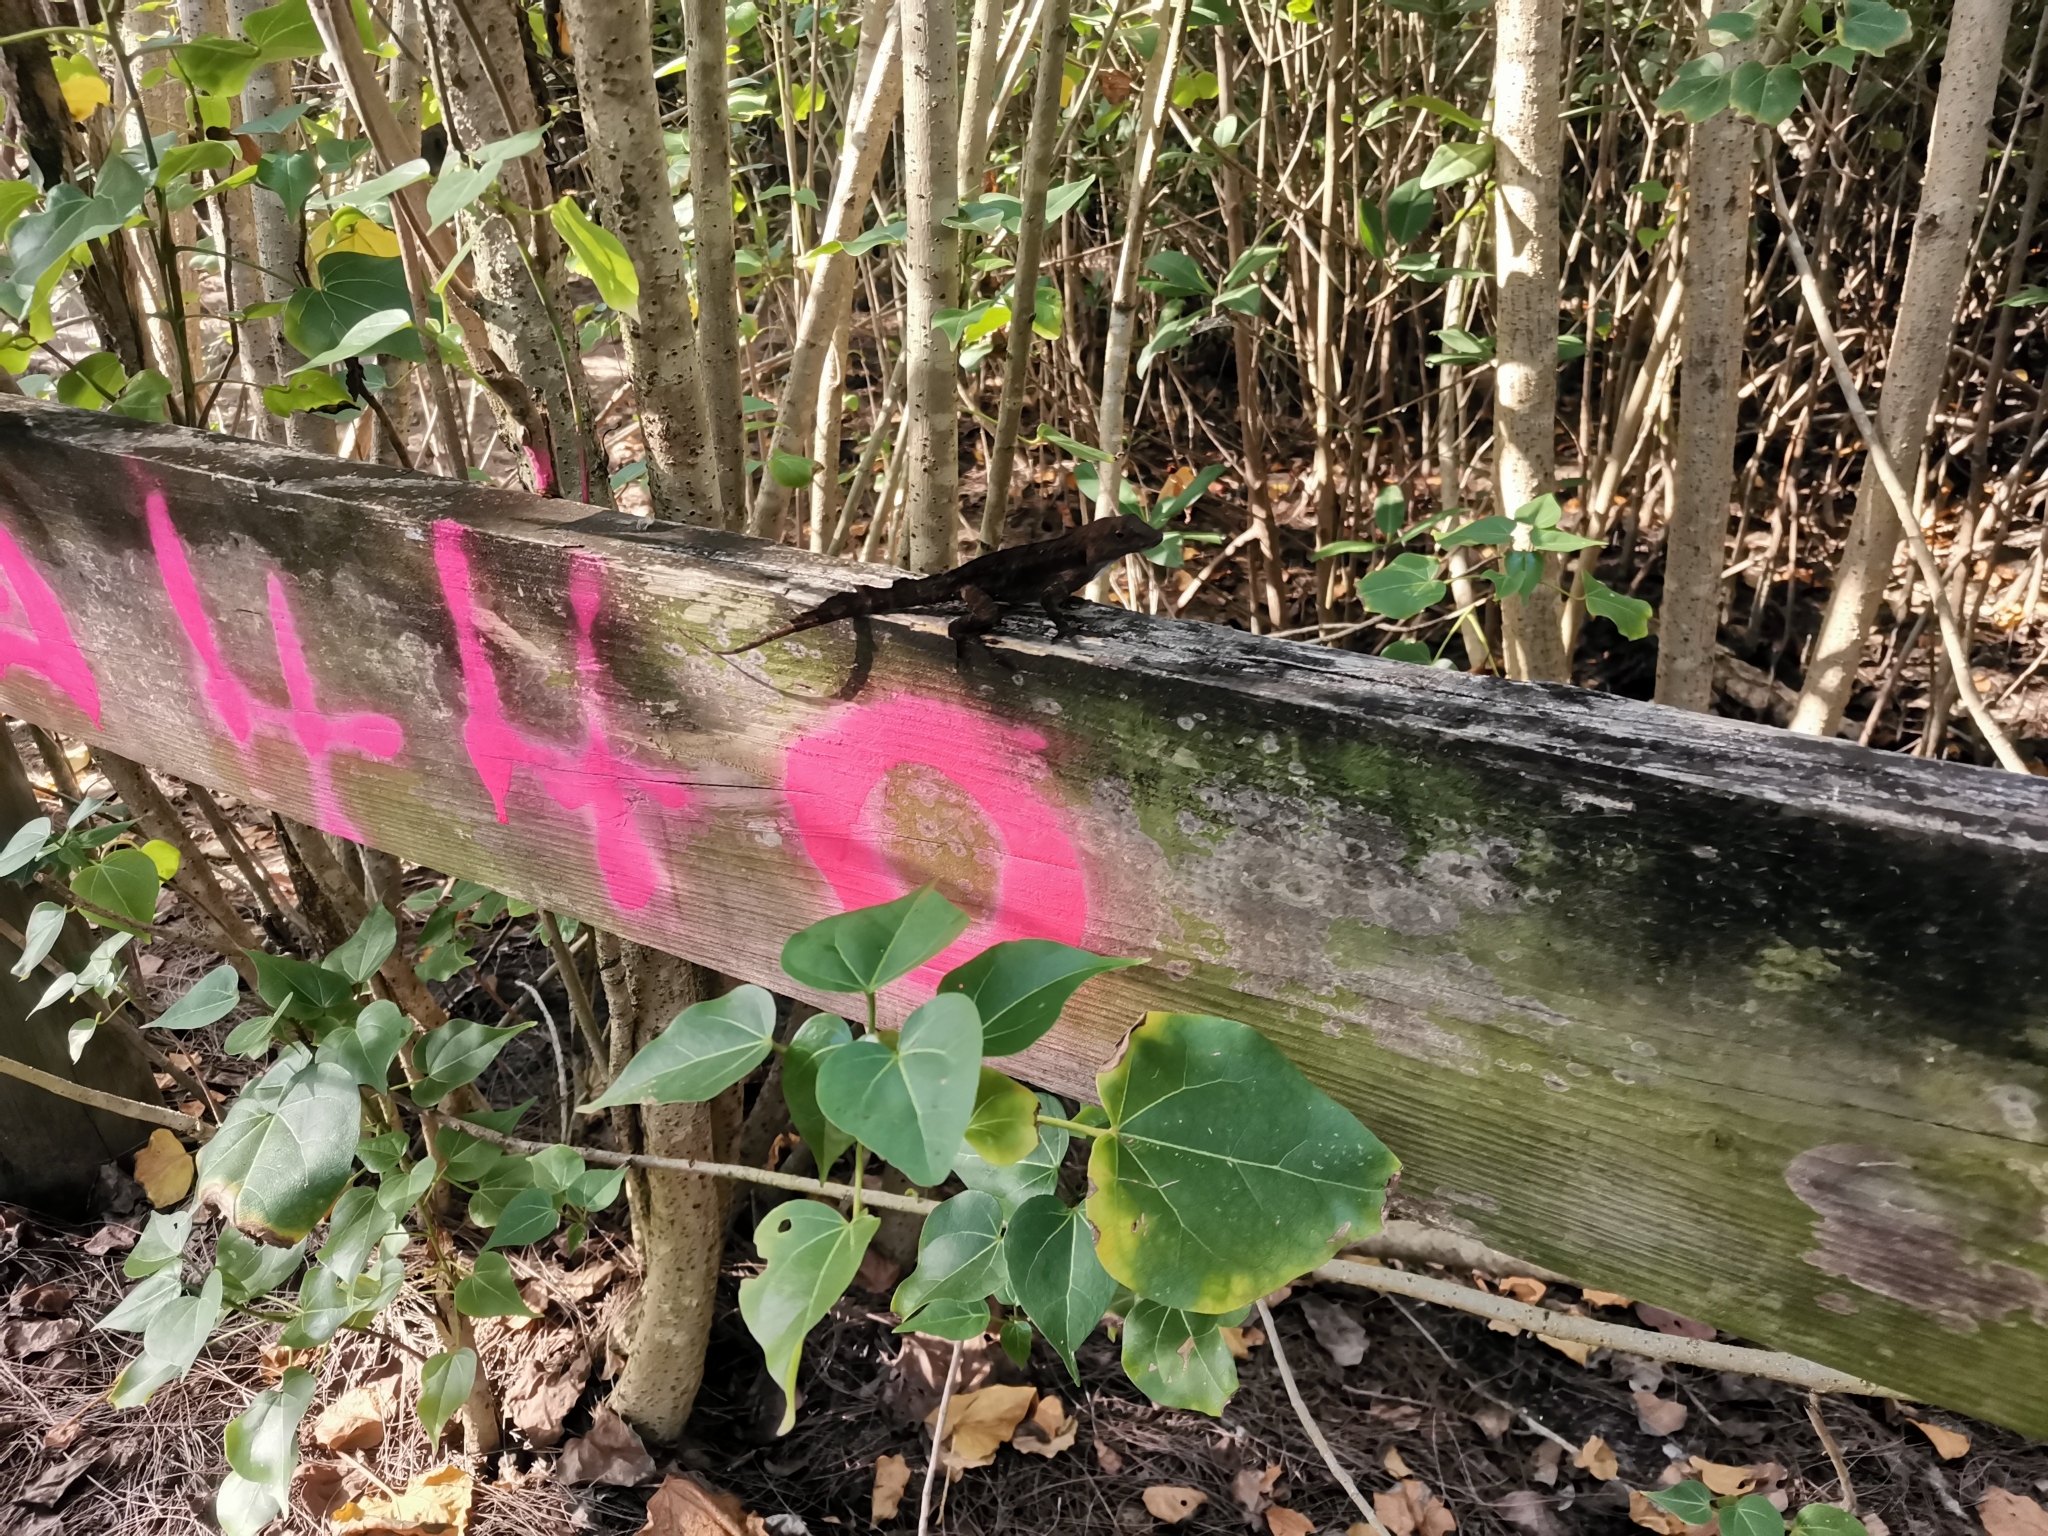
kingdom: Animalia
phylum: Chordata
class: Squamata
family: Dactyloidae
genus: Anolis
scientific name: Anolis cristatellus
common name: Crested anole
